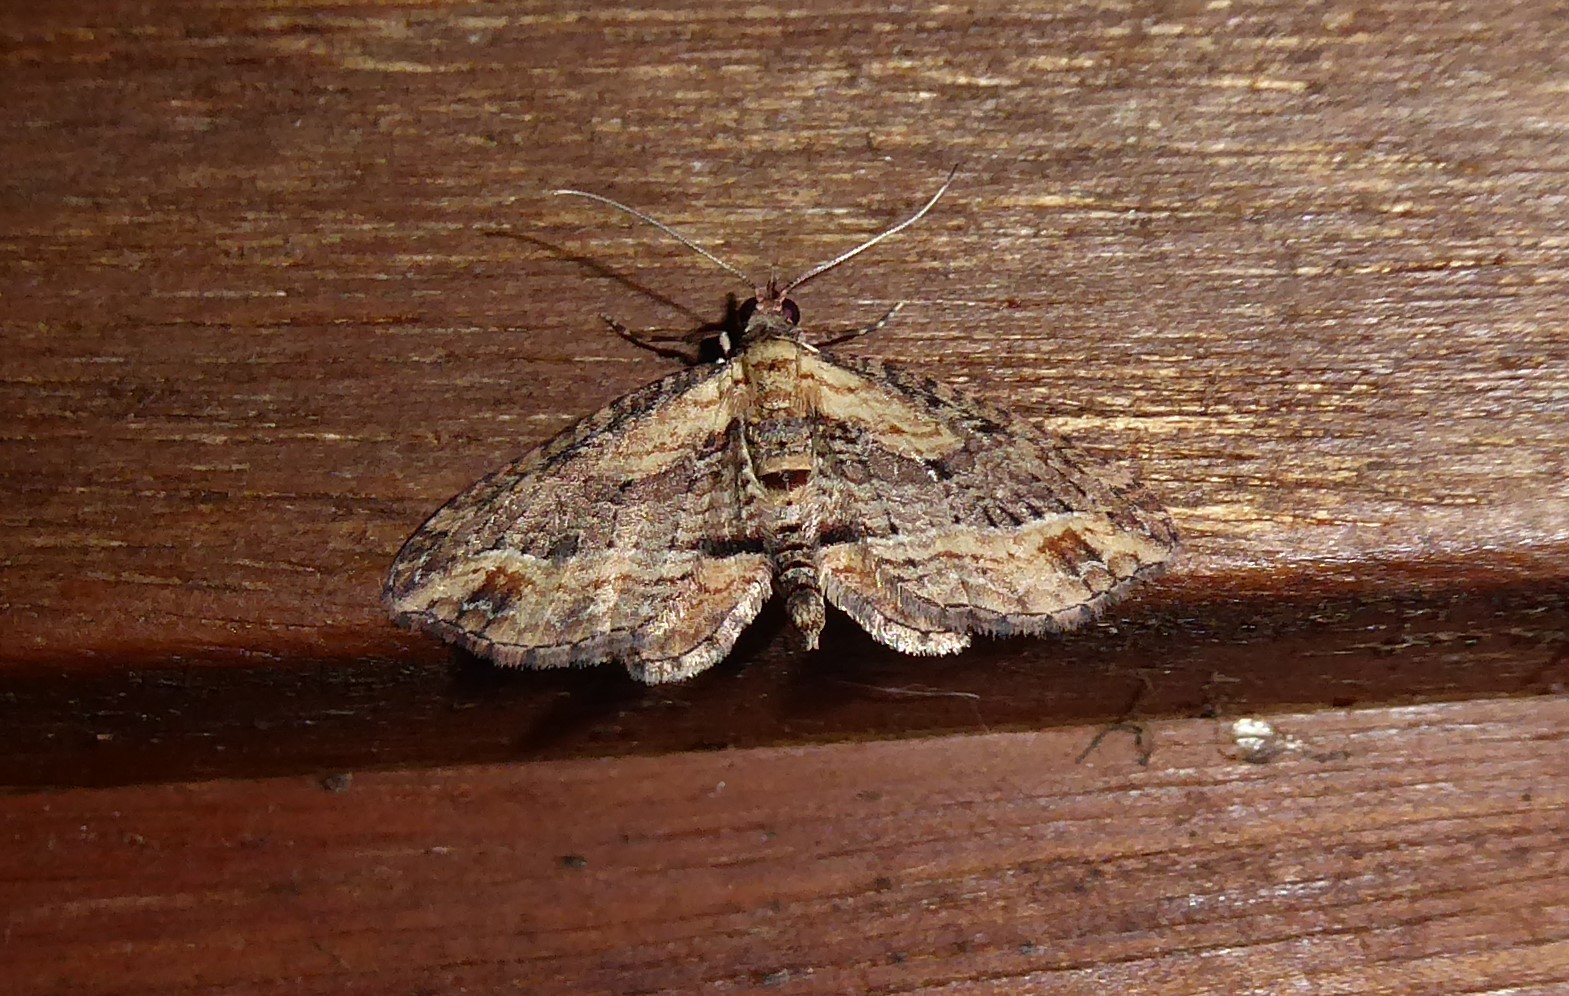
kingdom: Animalia
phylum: Arthropoda
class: Insecta
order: Lepidoptera
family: Geometridae
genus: Chloroclystis
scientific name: Chloroclystis filata
